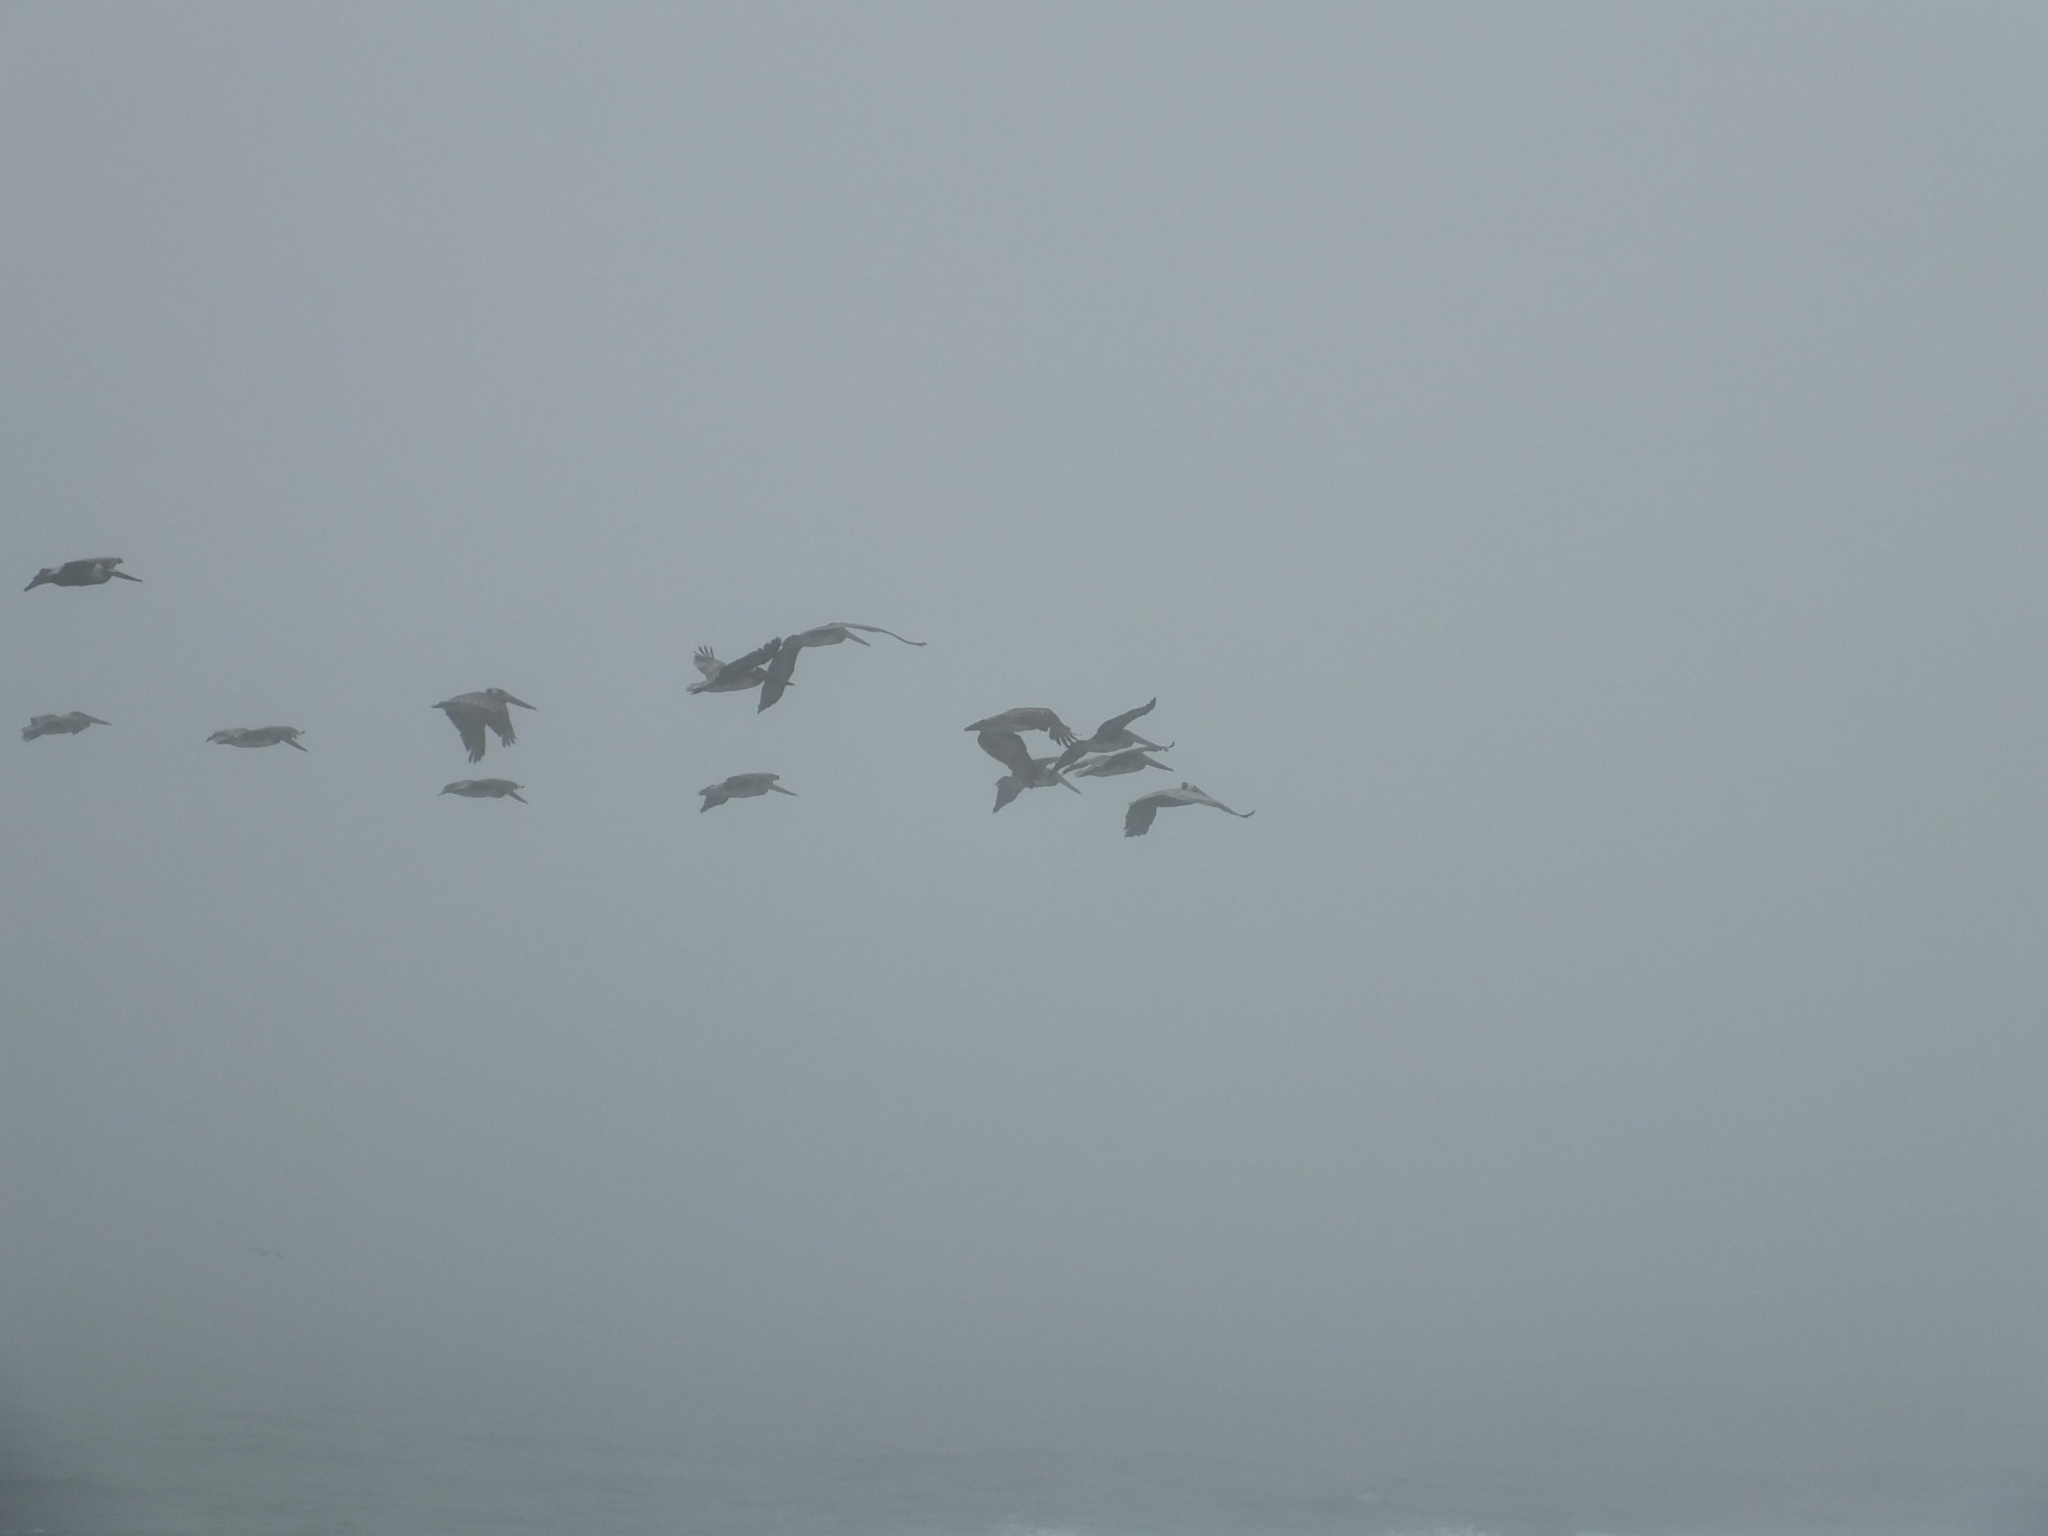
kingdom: Animalia
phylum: Chordata
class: Aves
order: Pelecaniformes
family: Pelecanidae
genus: Pelecanus
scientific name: Pelecanus occidentalis
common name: Brown pelican
